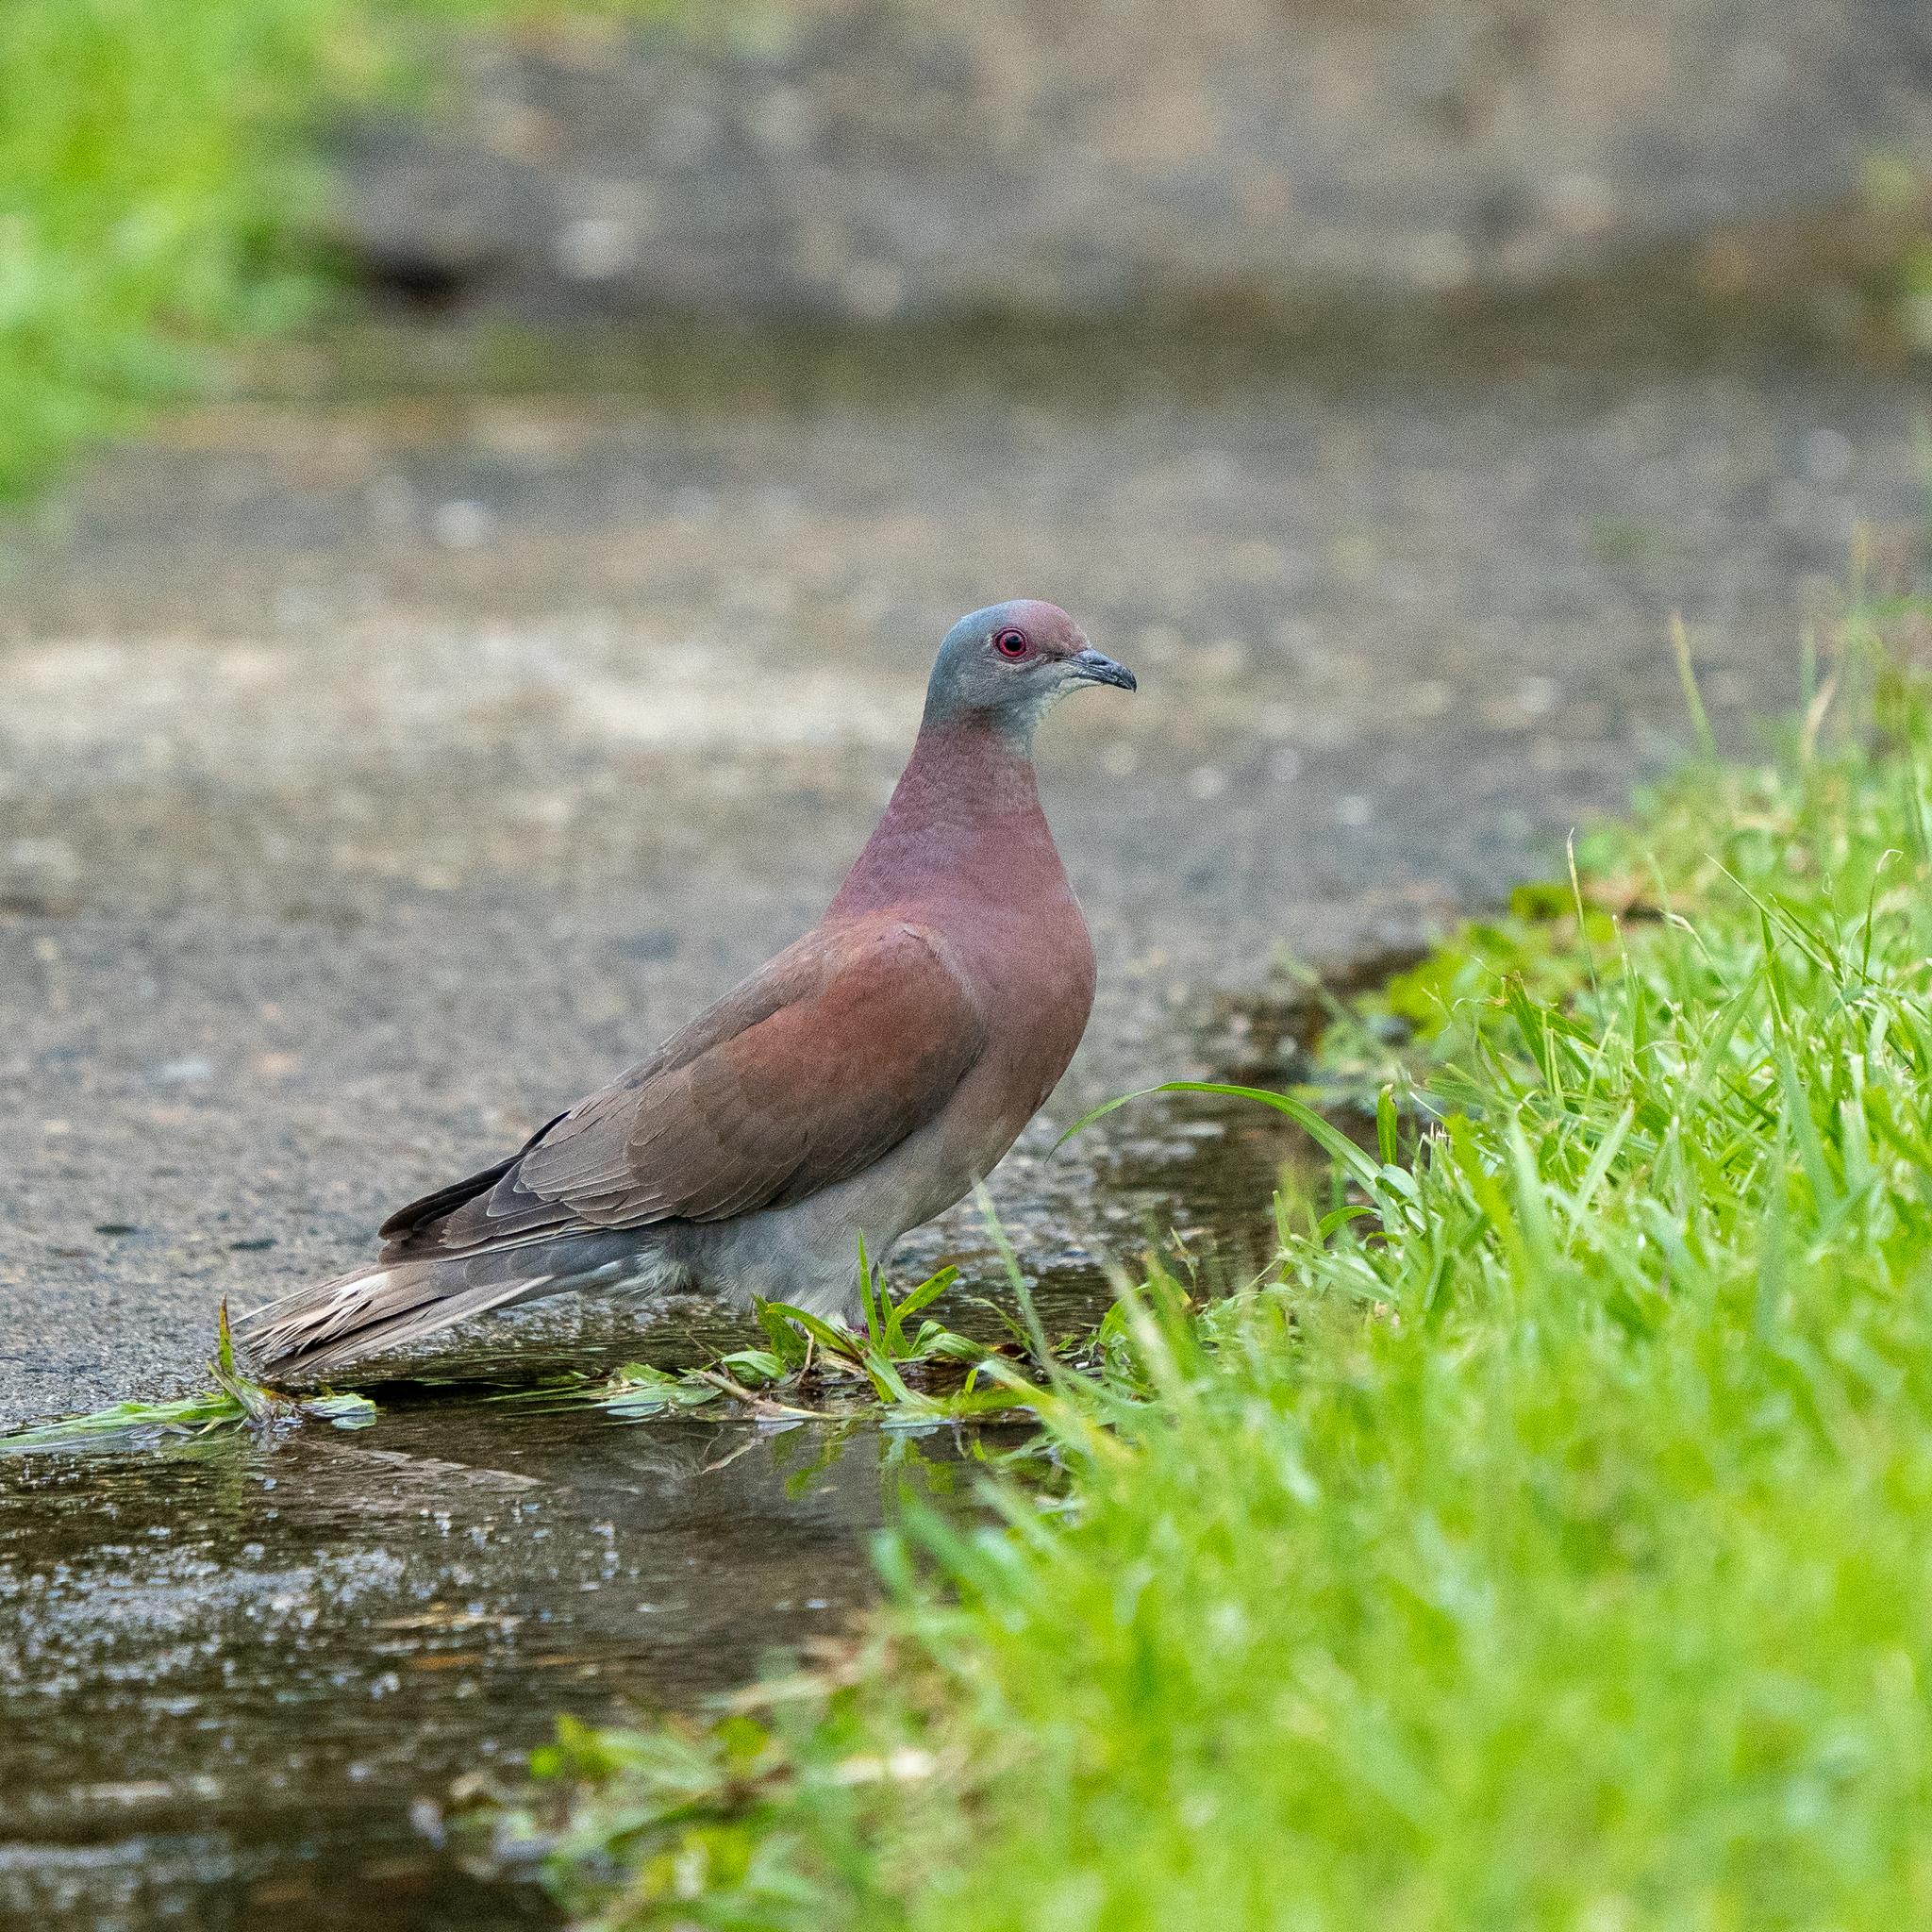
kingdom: Animalia
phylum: Chordata
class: Aves
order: Columbiformes
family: Columbidae
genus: Patagioenas
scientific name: Patagioenas cayennensis
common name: Pale-vented pigeon
